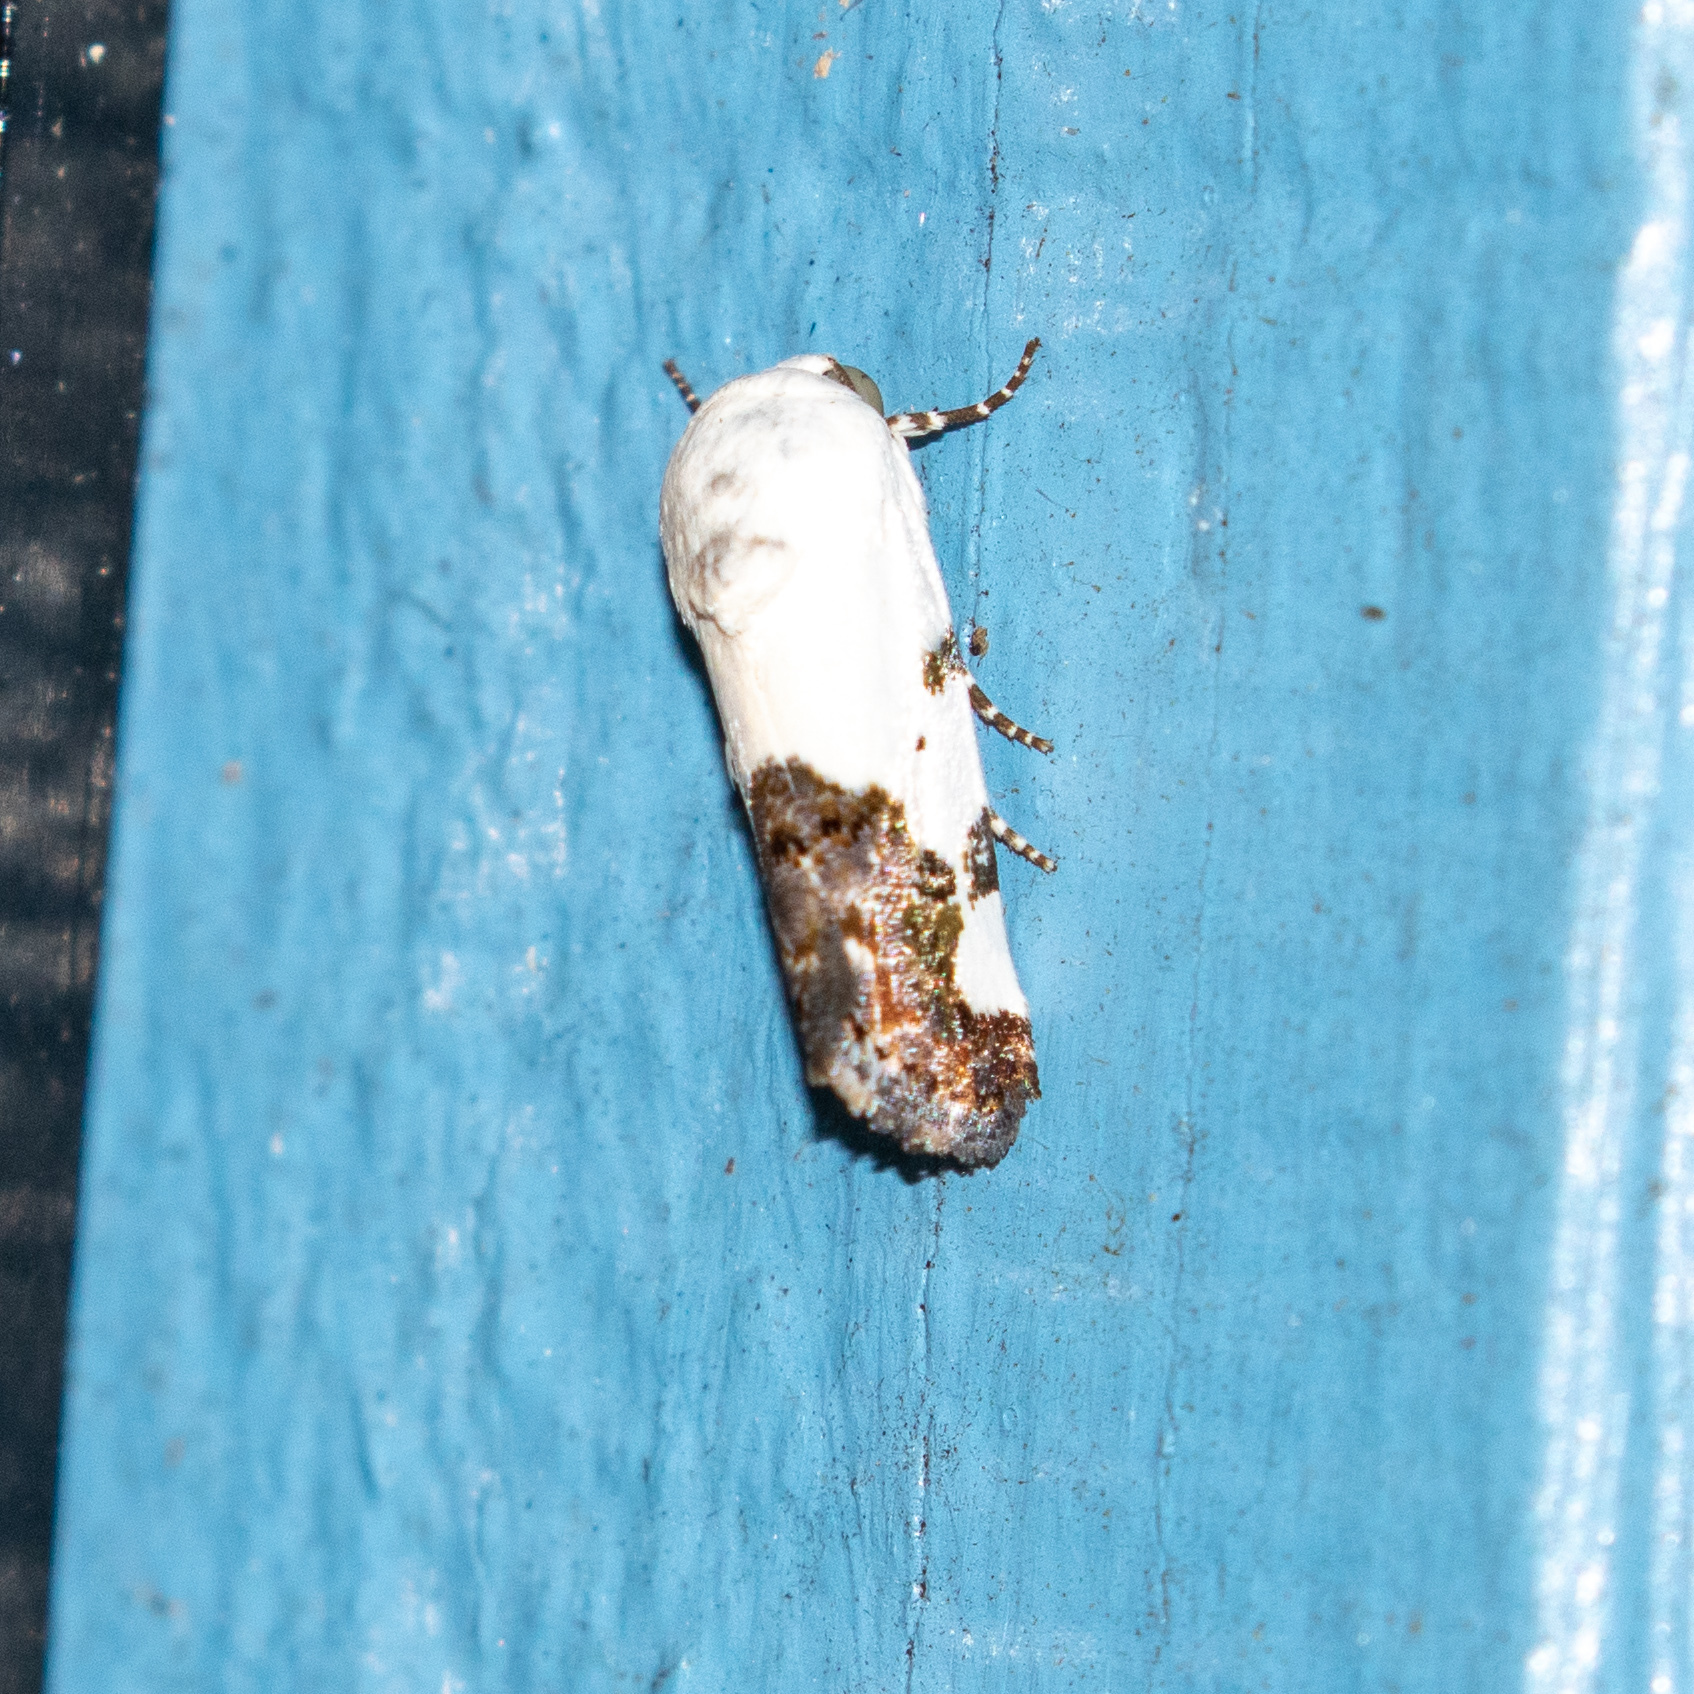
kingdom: Animalia
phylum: Arthropoda
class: Insecta
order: Lepidoptera
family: Noctuidae
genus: Acontia
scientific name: Acontia aprica
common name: Nun
